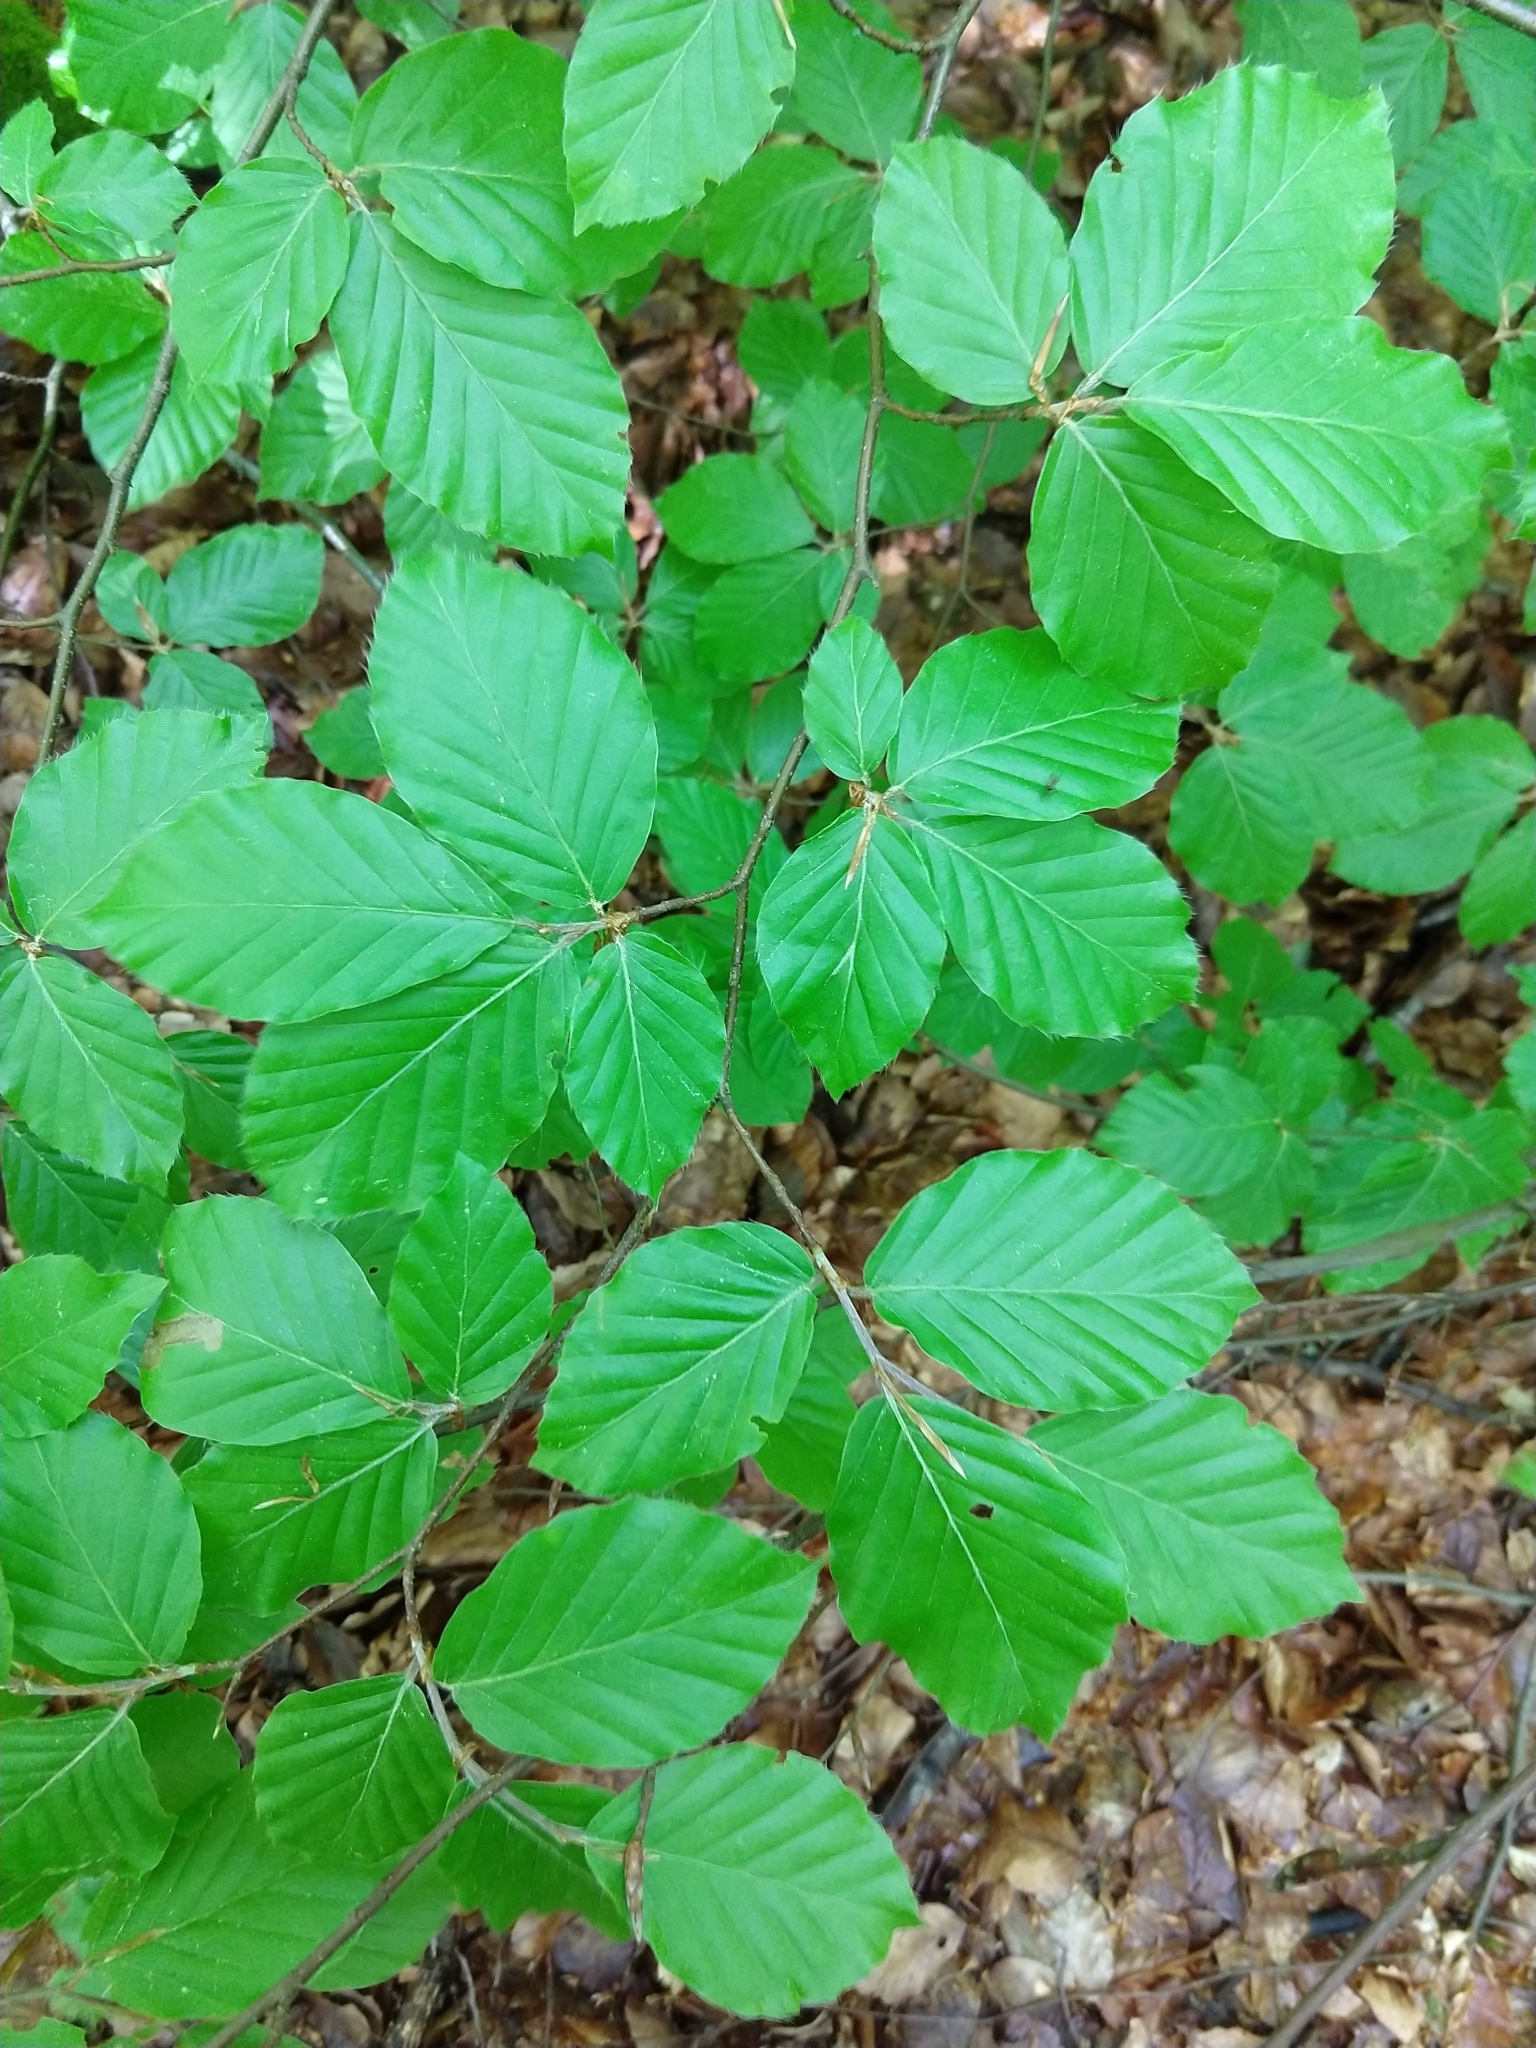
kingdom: Plantae
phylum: Tracheophyta
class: Magnoliopsida
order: Fagales
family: Fagaceae
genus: Fagus
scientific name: Fagus sylvatica
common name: Beech
